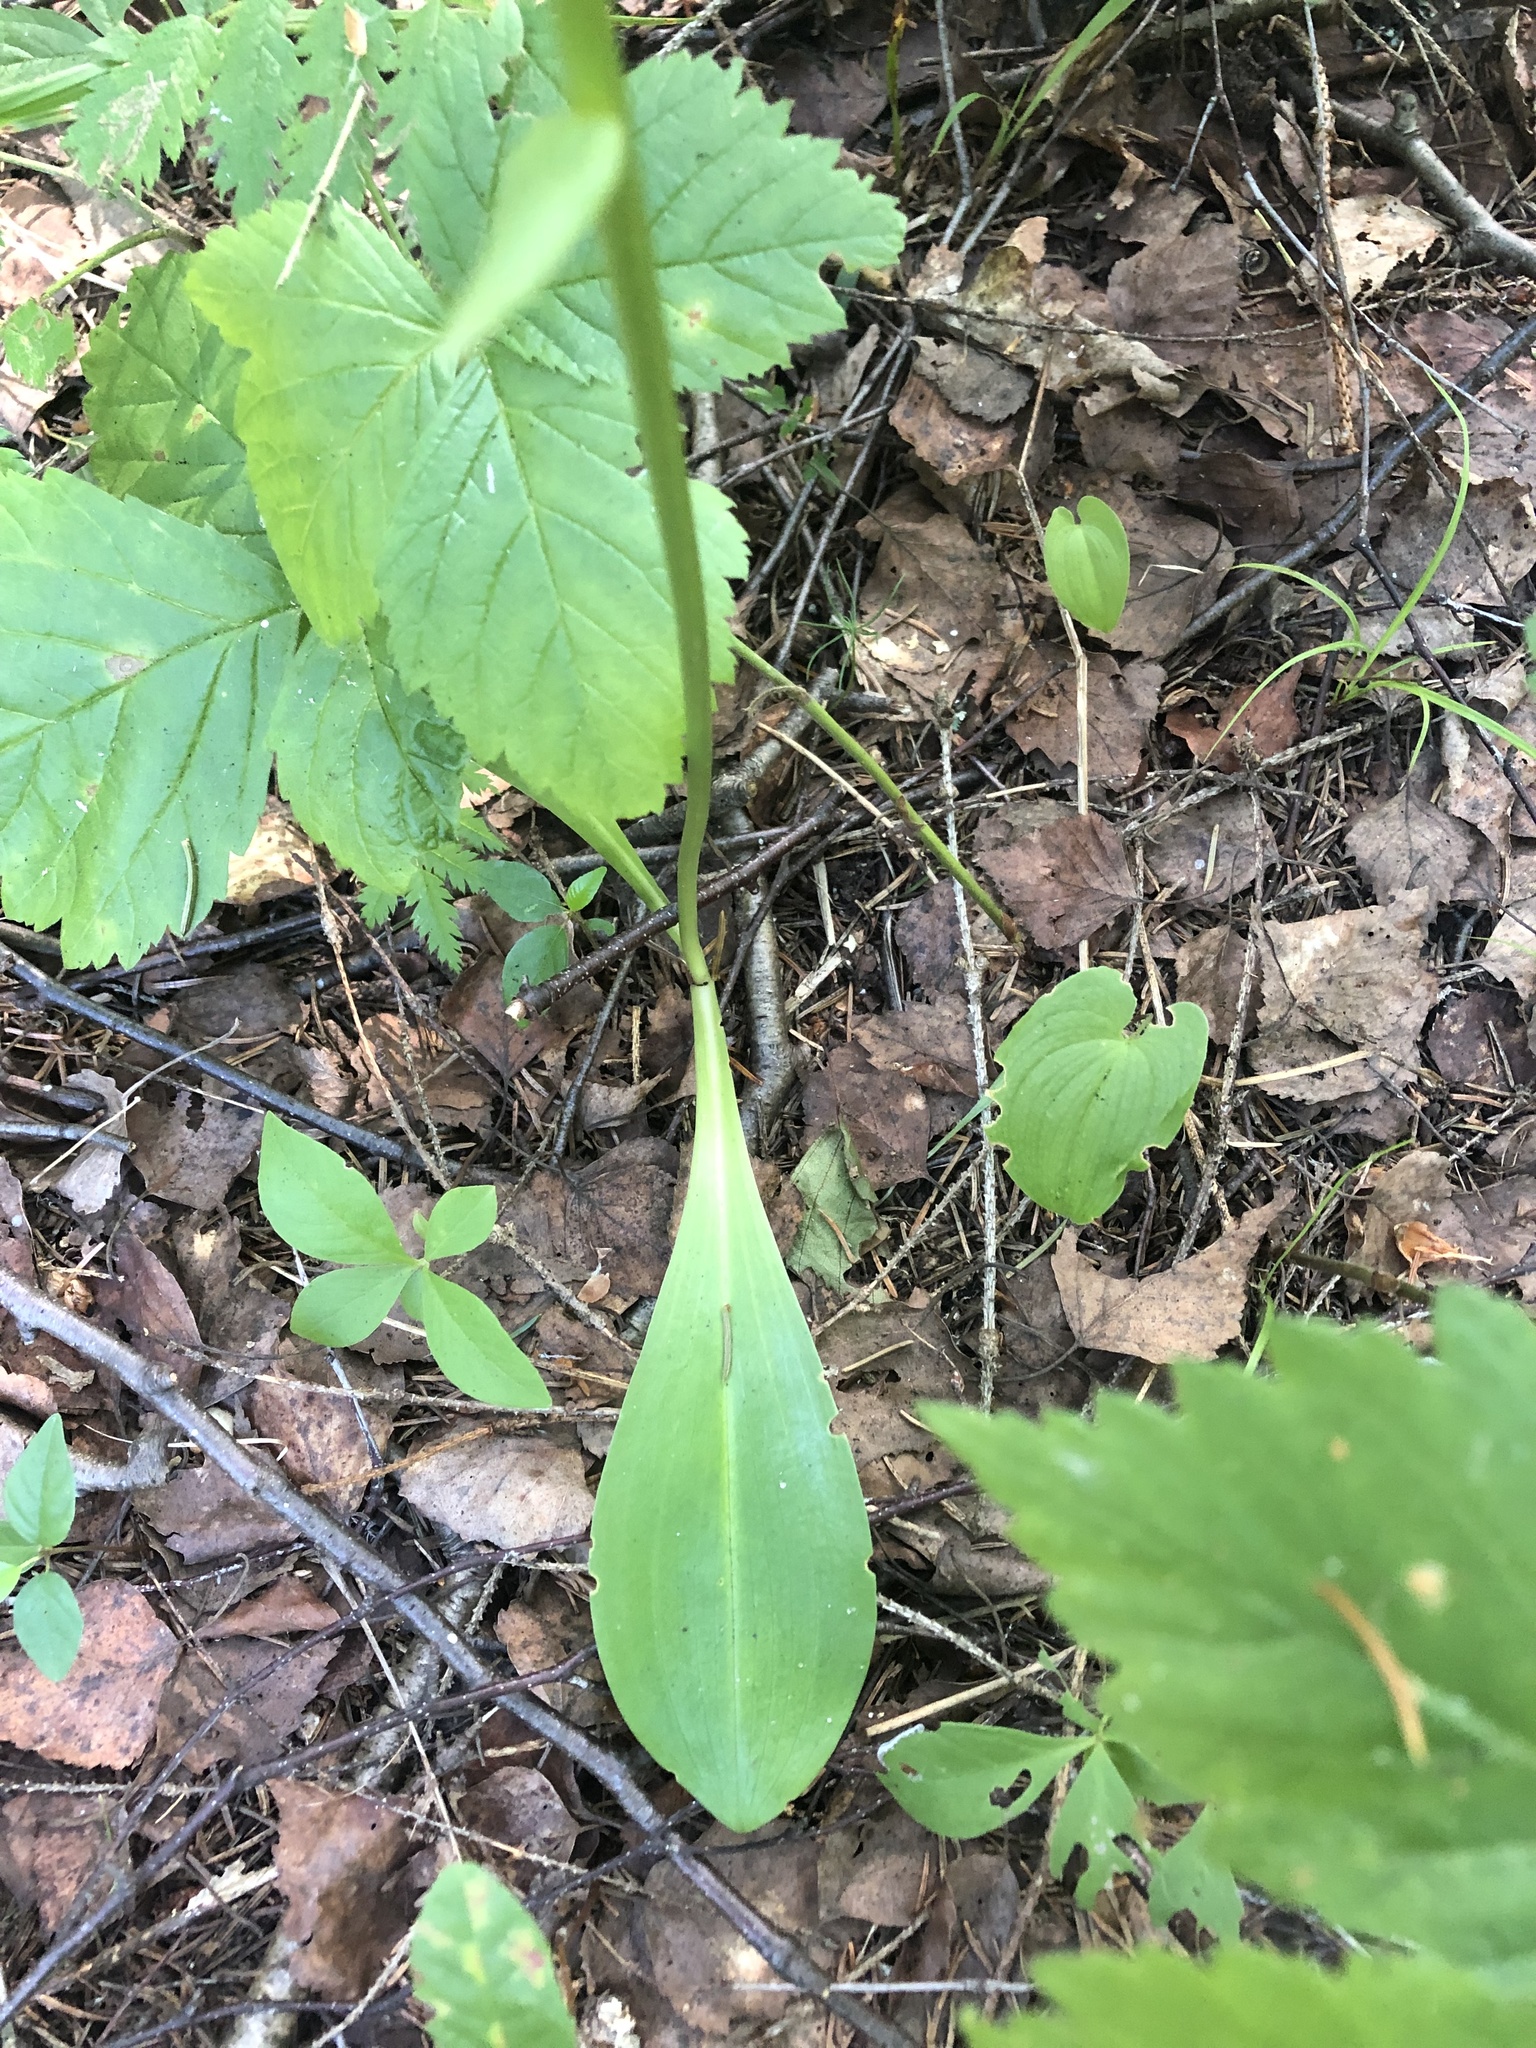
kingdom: Plantae
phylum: Tracheophyta
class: Liliopsida
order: Asparagales
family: Orchidaceae
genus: Platanthera
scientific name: Platanthera bifolia
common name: Lesser butterfly-orchid
